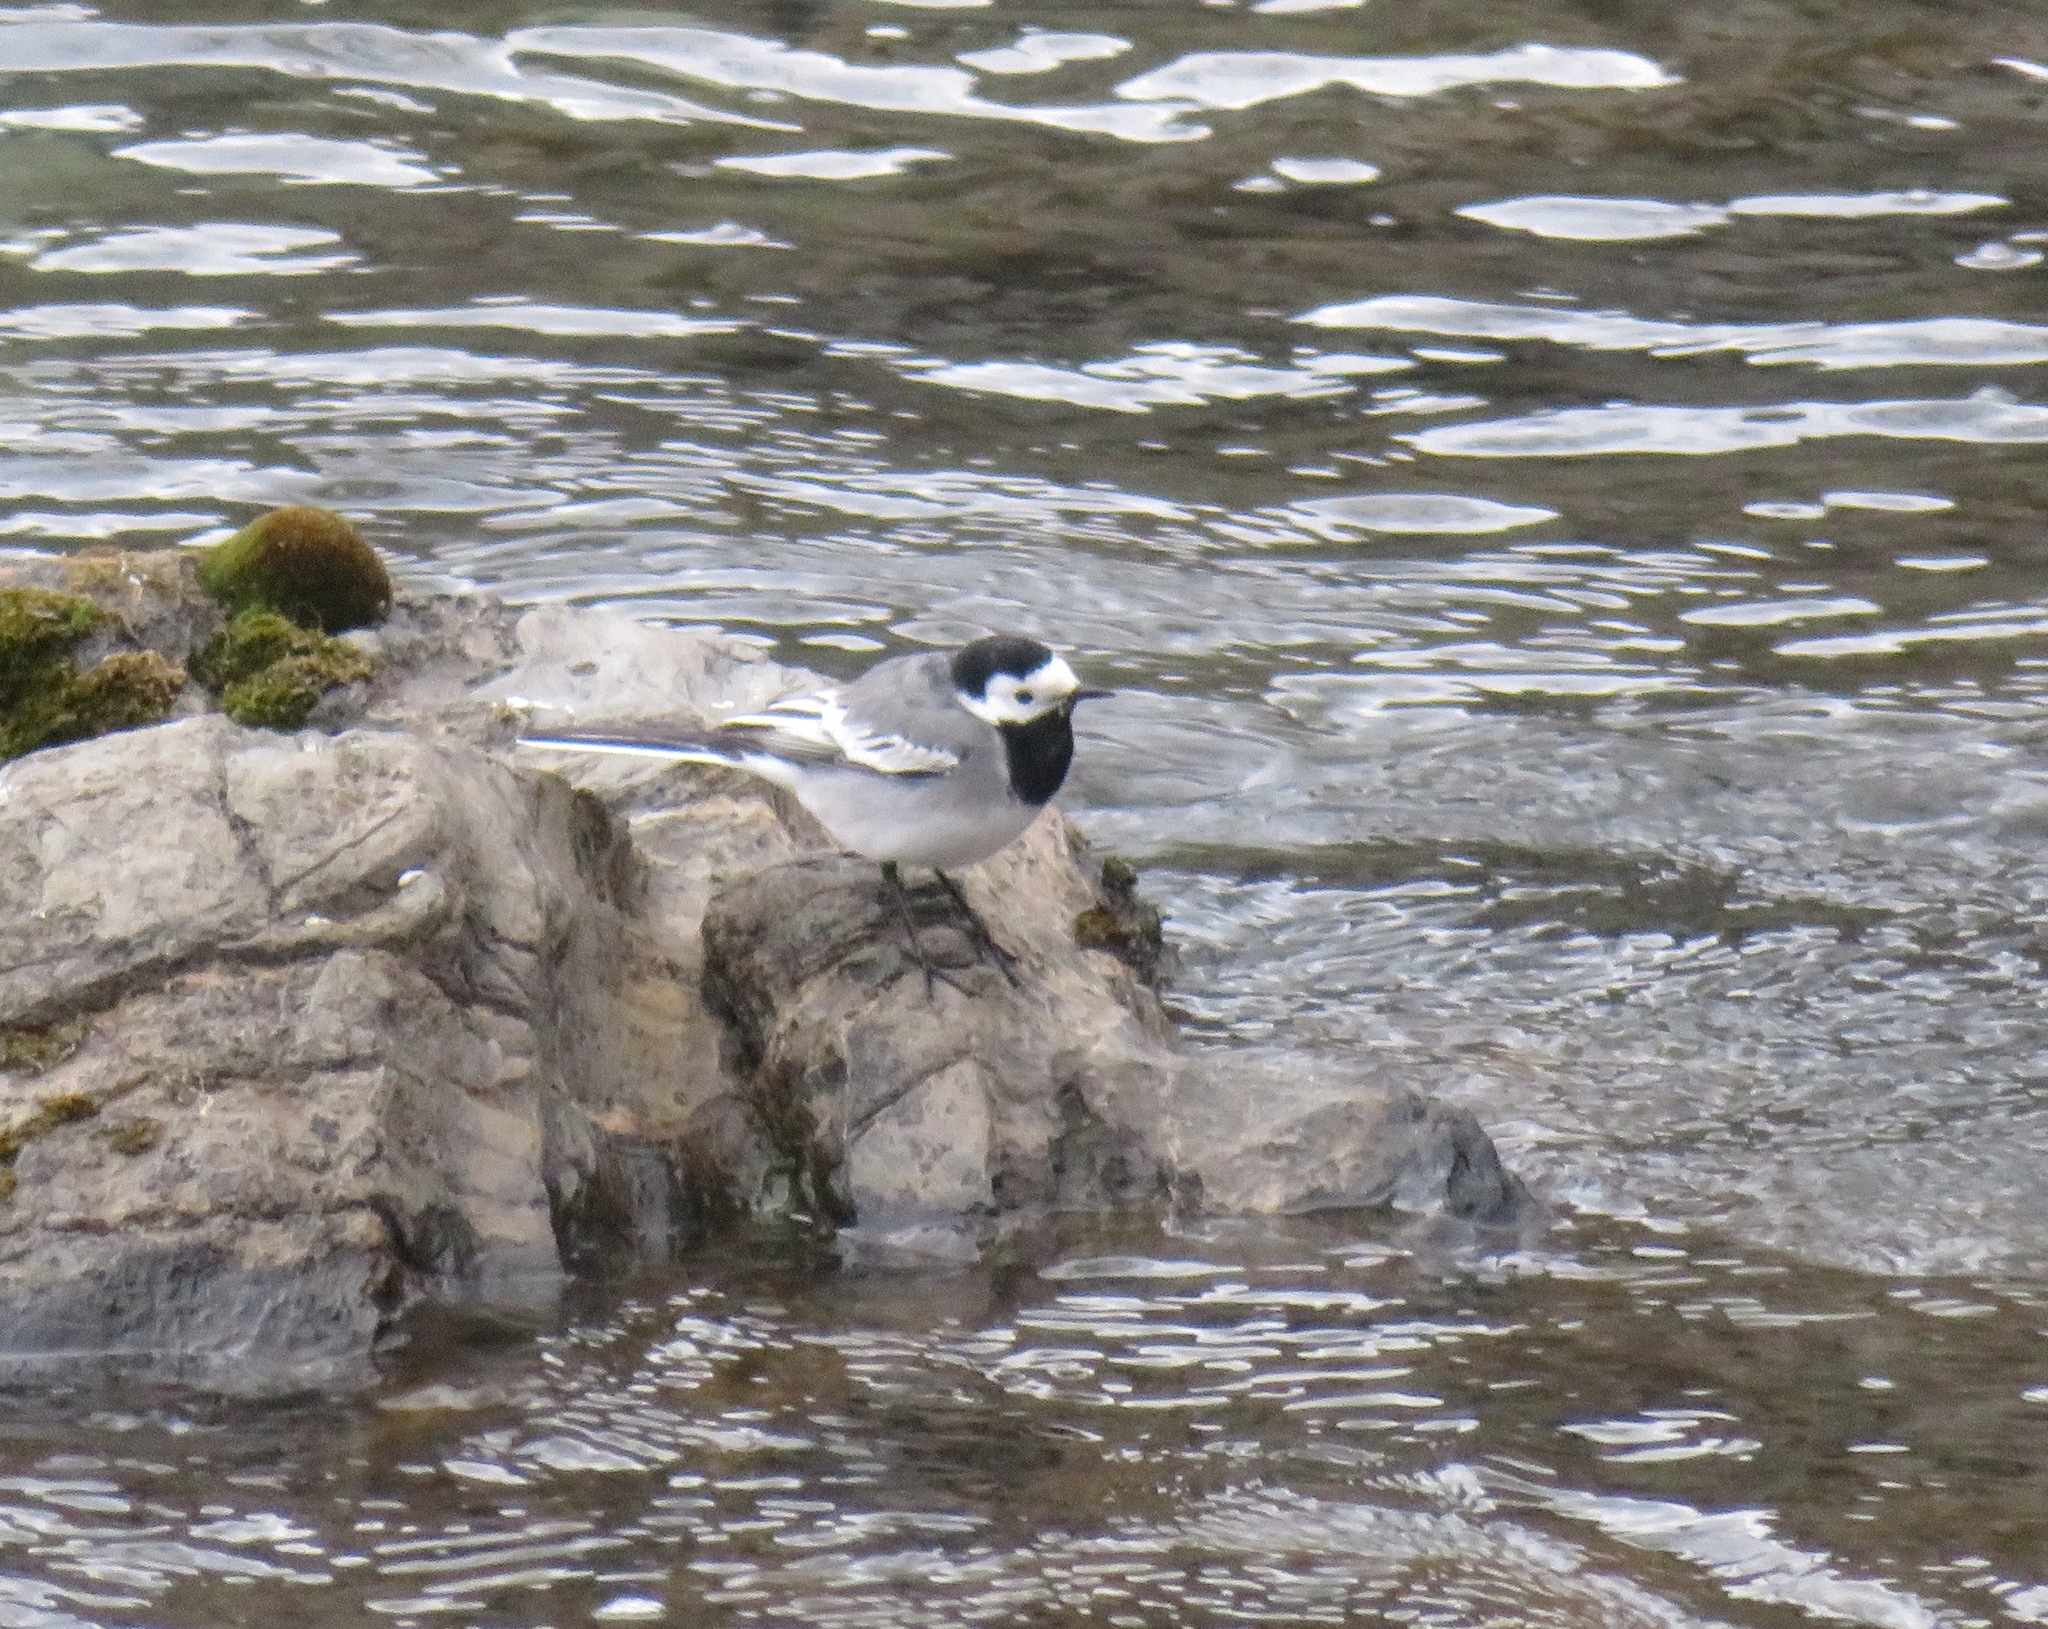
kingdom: Animalia
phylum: Chordata
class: Aves
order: Passeriformes
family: Motacillidae
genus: Motacilla
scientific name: Motacilla alba
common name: White wagtail
